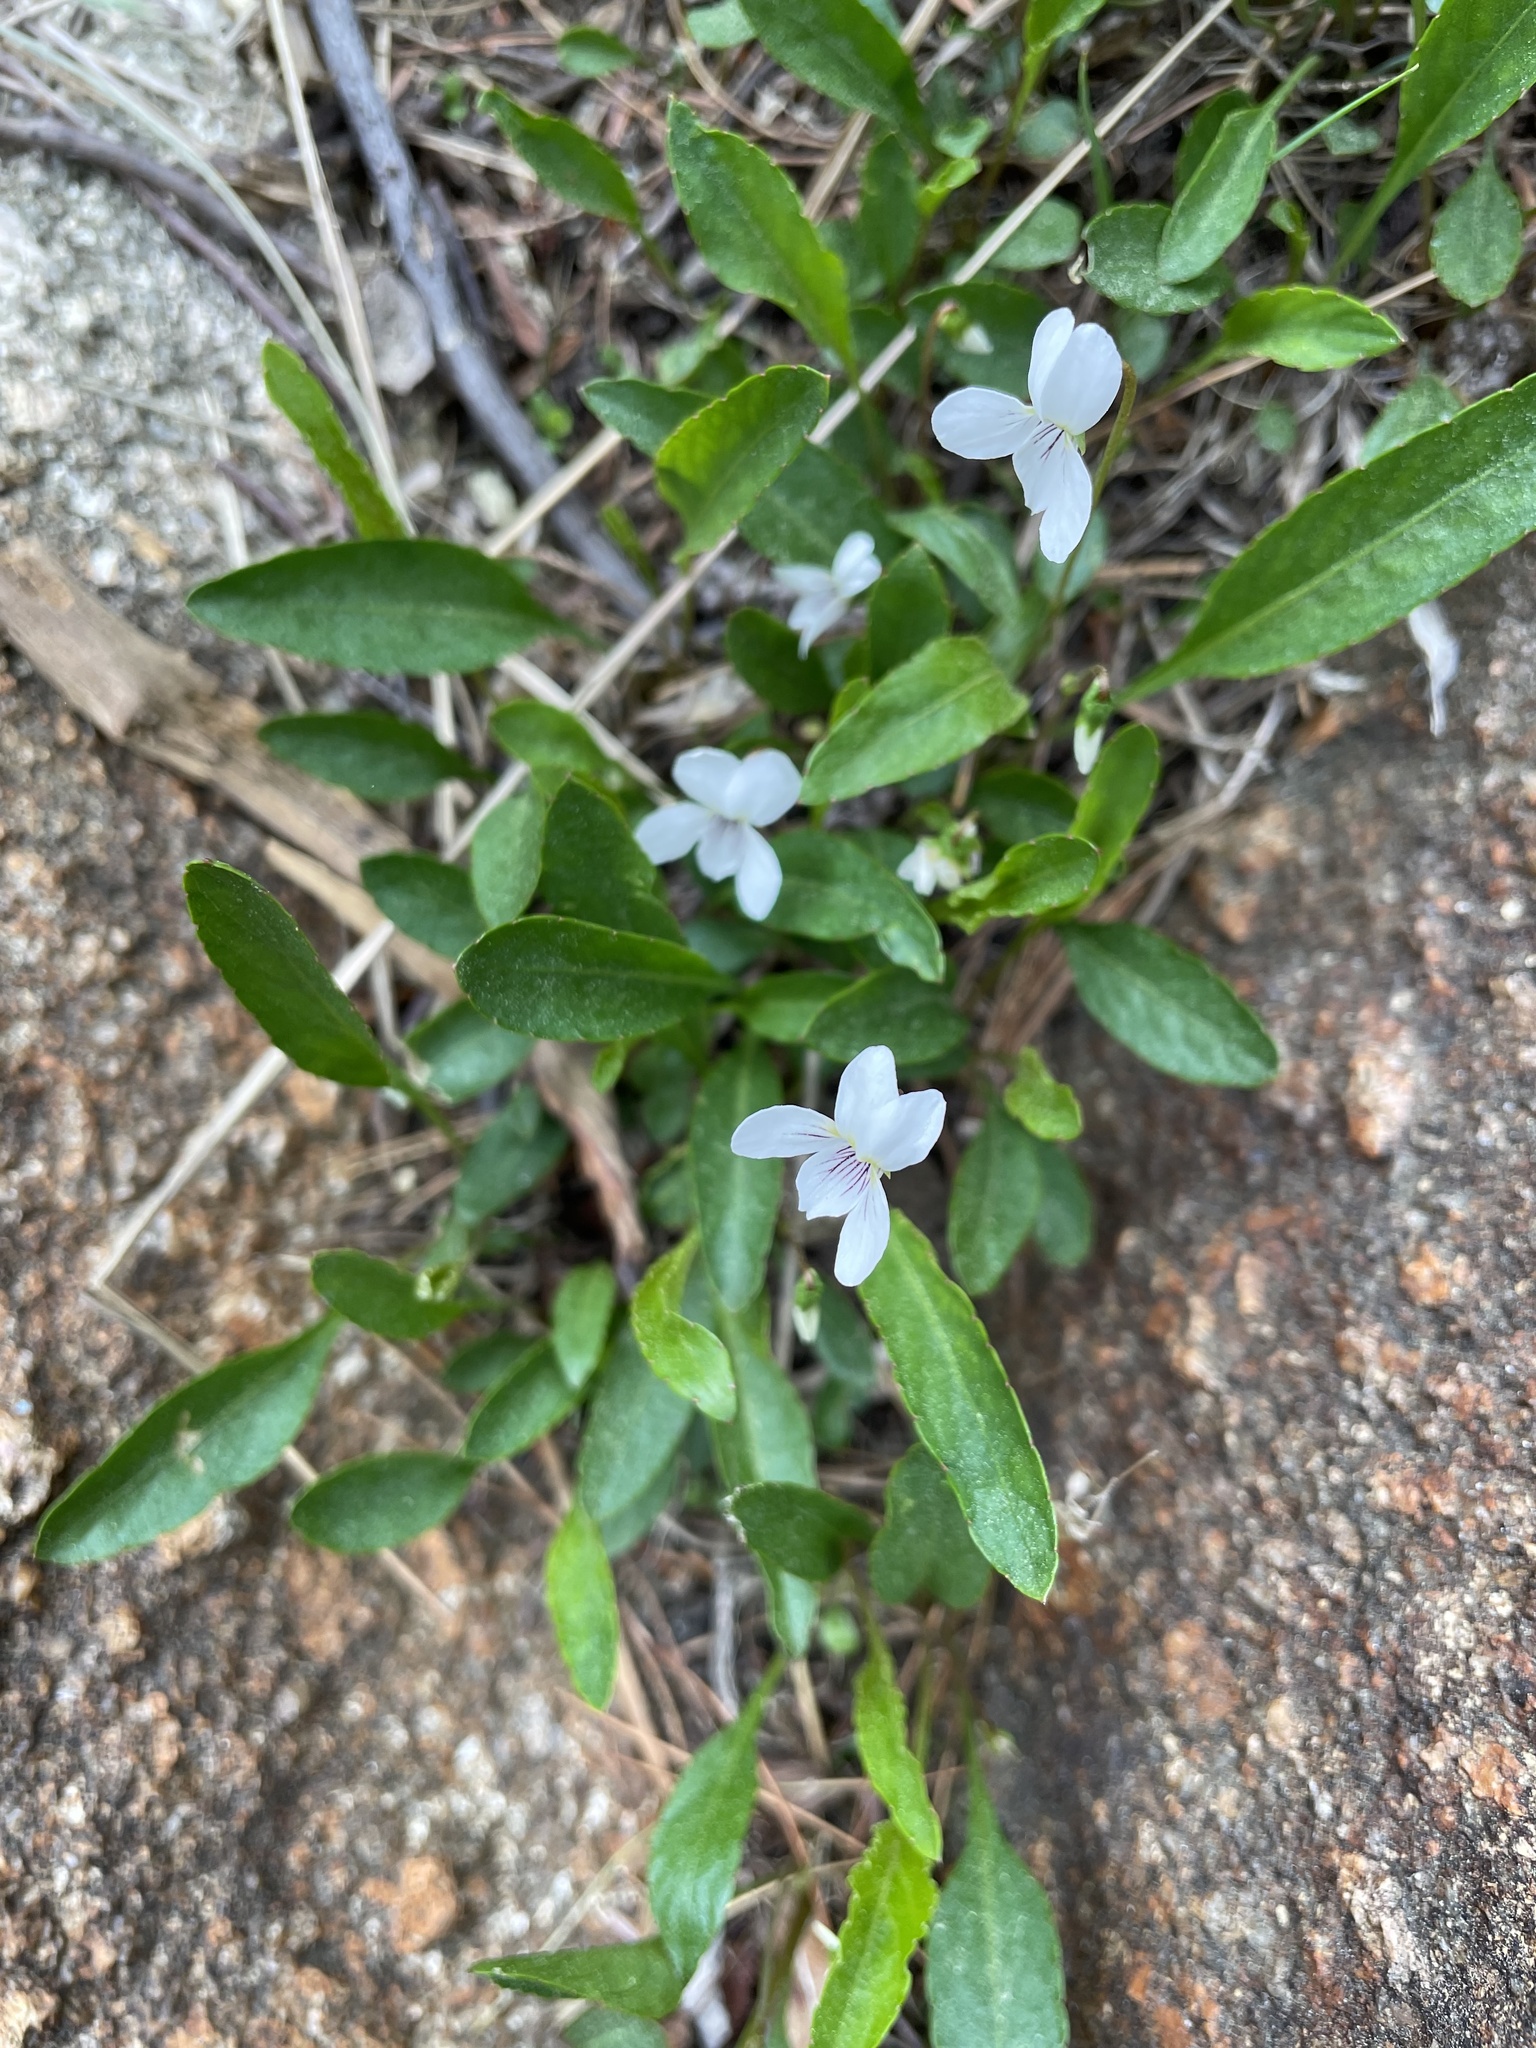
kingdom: Plantae
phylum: Tracheophyta
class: Magnoliopsida
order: Malpighiales
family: Violaceae
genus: Viola
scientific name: Viola lanceolata
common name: Bog white violet
